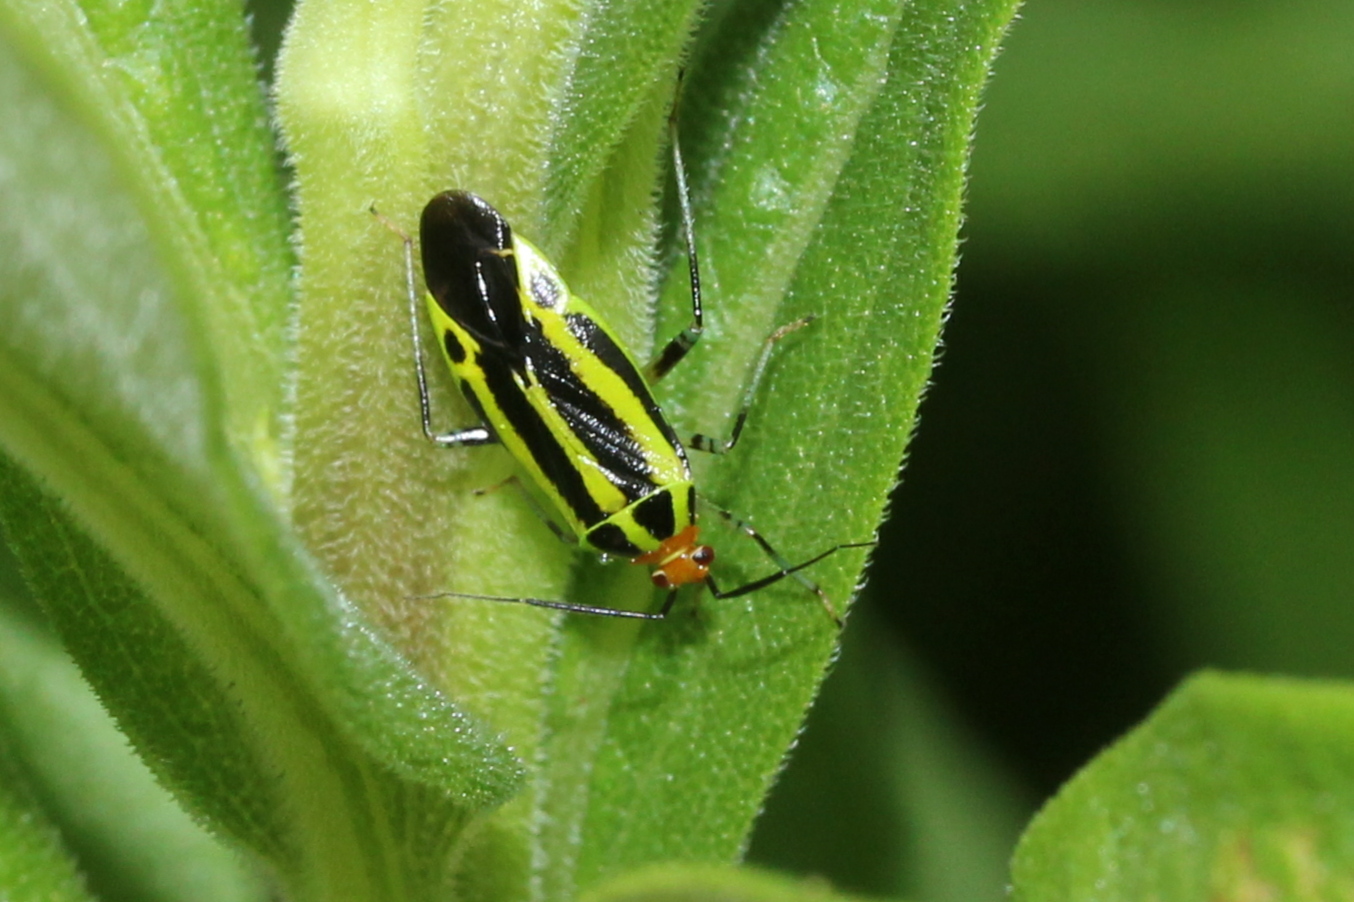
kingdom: Animalia
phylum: Arthropoda
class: Insecta
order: Hemiptera
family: Miridae
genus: Poecilocapsus
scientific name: Poecilocapsus lineatus
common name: Four-lined plant bug
